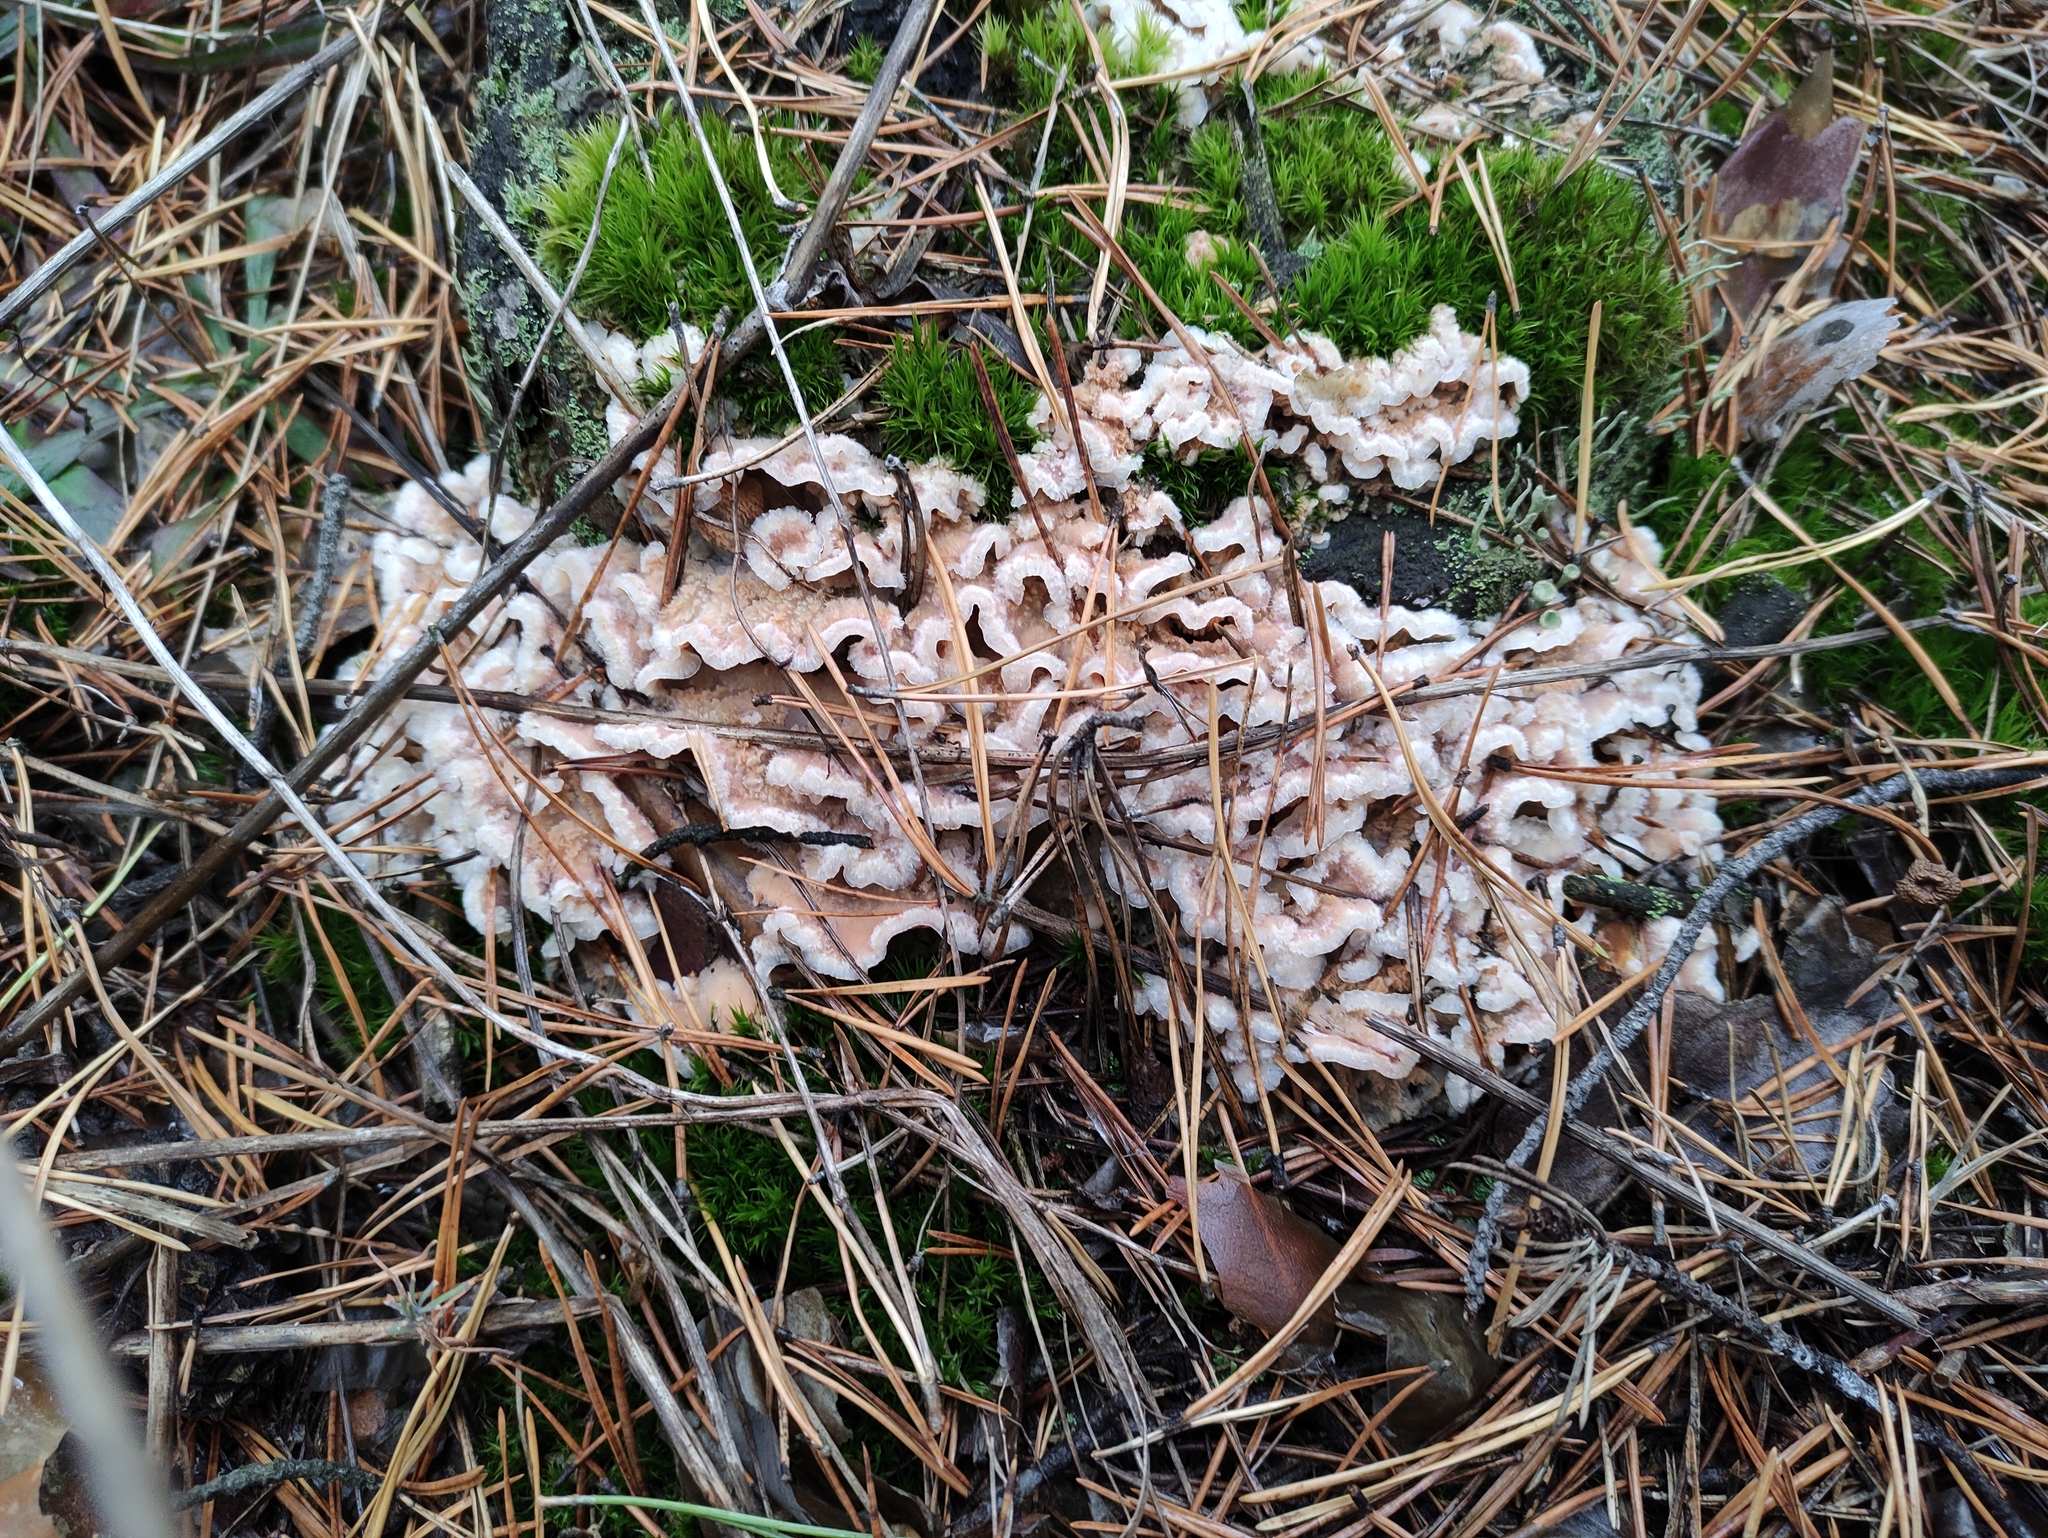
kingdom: Fungi
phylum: Basidiomycota
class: Agaricomycetes
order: Polyporales
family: Meruliaceae
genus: Phlebia
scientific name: Phlebia tremellosa
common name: Jelly rot
